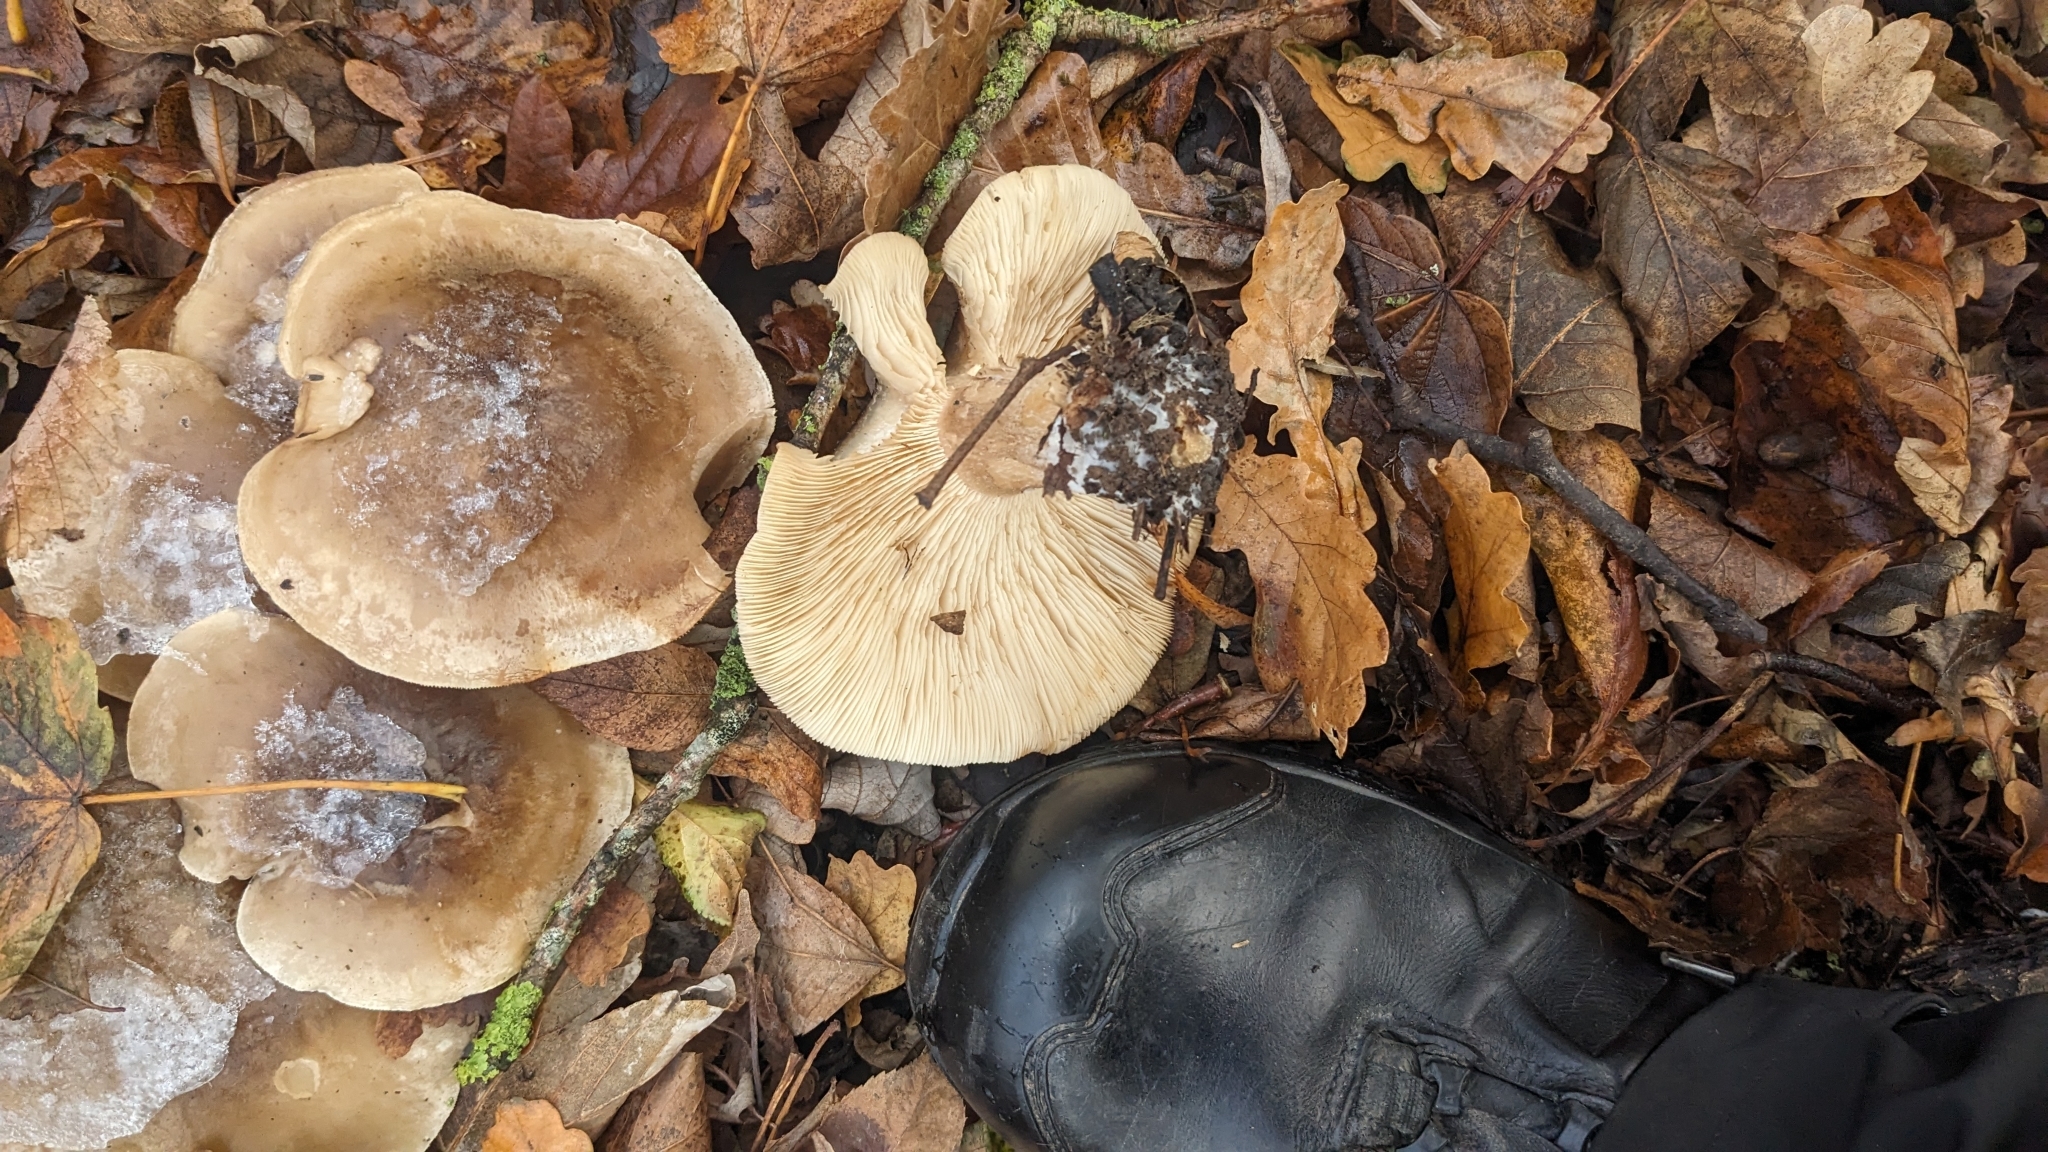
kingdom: Fungi
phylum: Basidiomycota
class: Agaricomycetes
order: Agaricales
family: Tricholomataceae
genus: Clitocybe
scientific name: Clitocybe nebularis
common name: Clouded agaric
